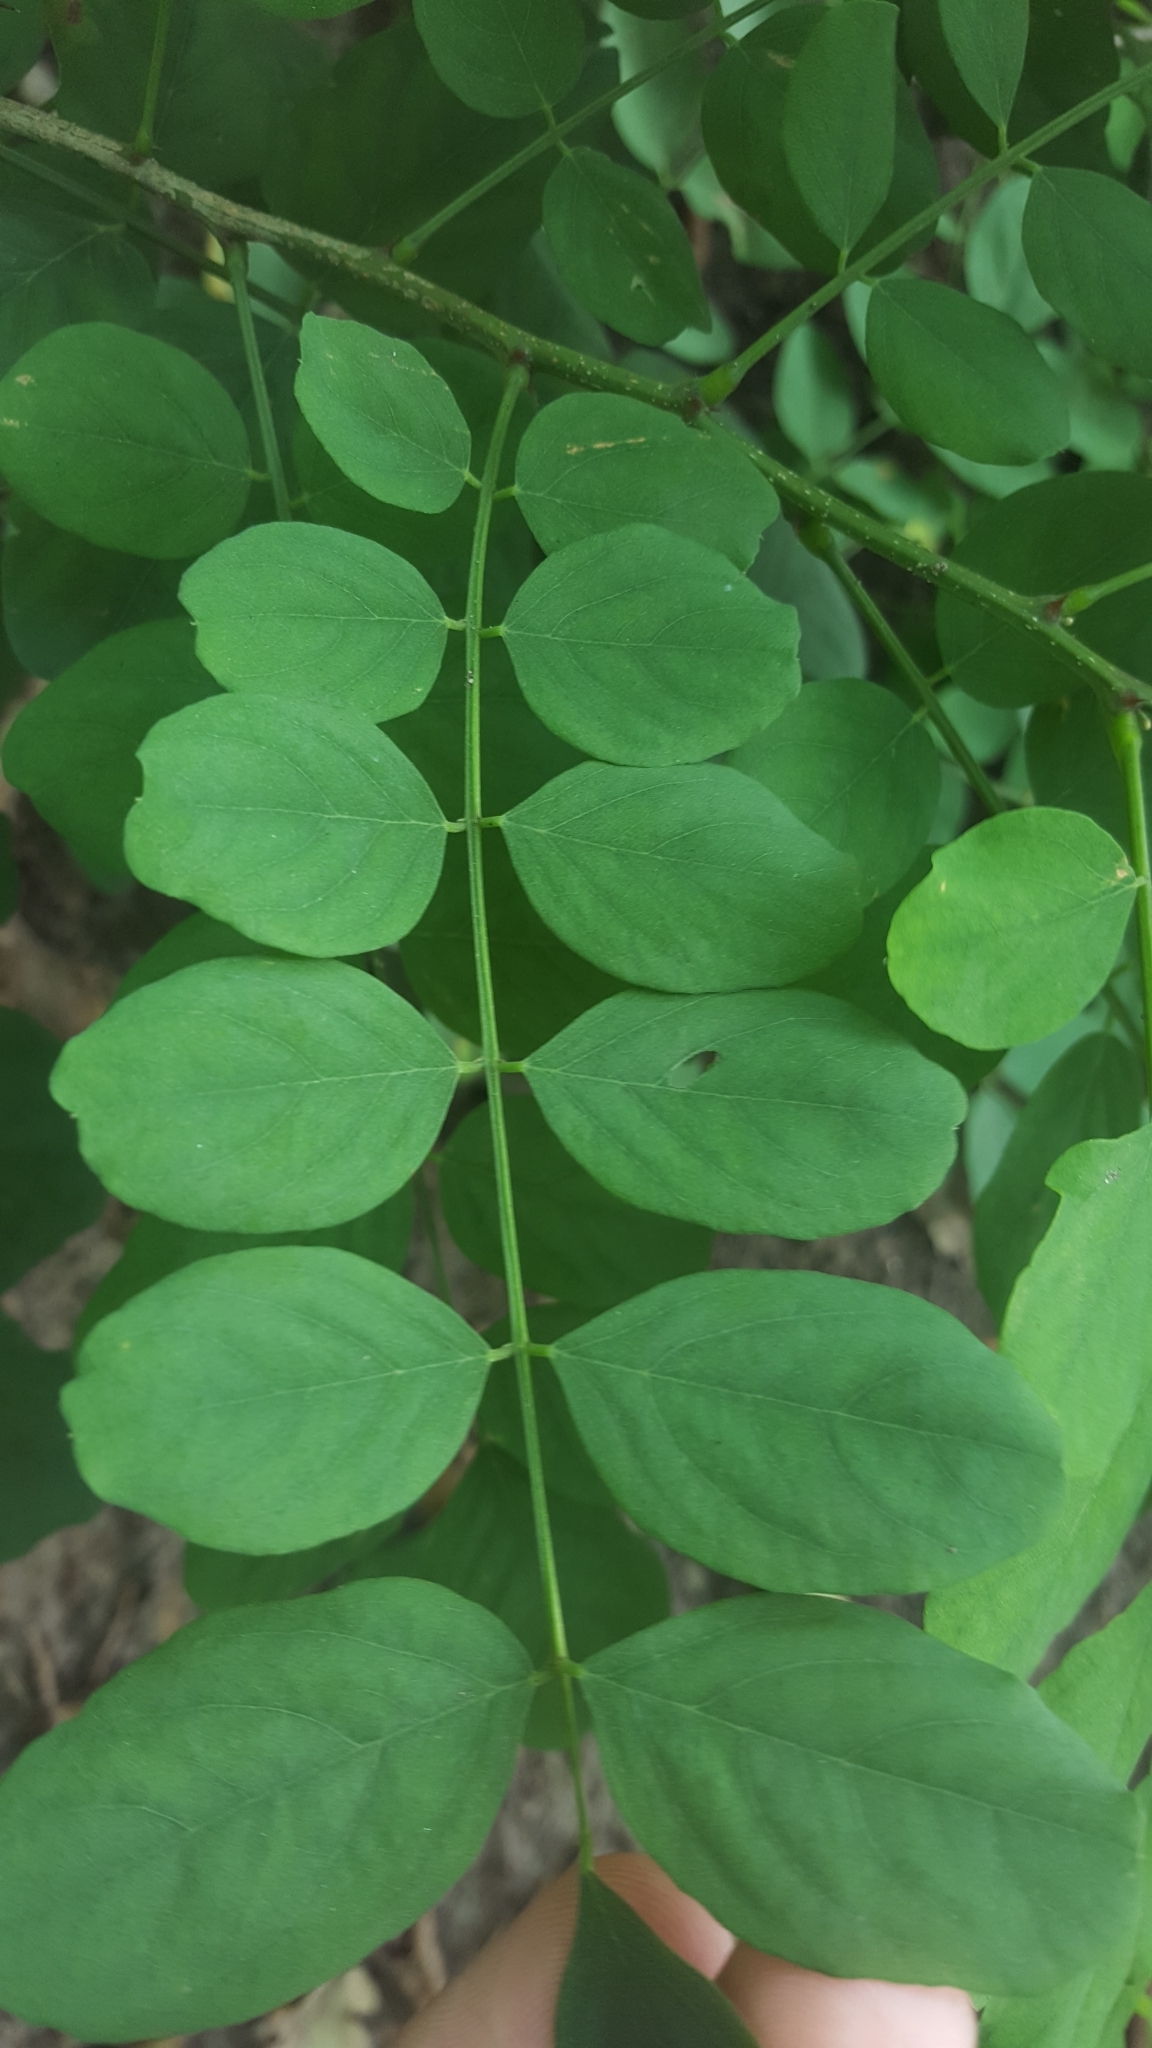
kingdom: Plantae
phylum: Tracheophyta
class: Magnoliopsida
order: Fabales
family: Fabaceae
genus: Robinia
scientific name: Robinia pseudoacacia
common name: Black locust
